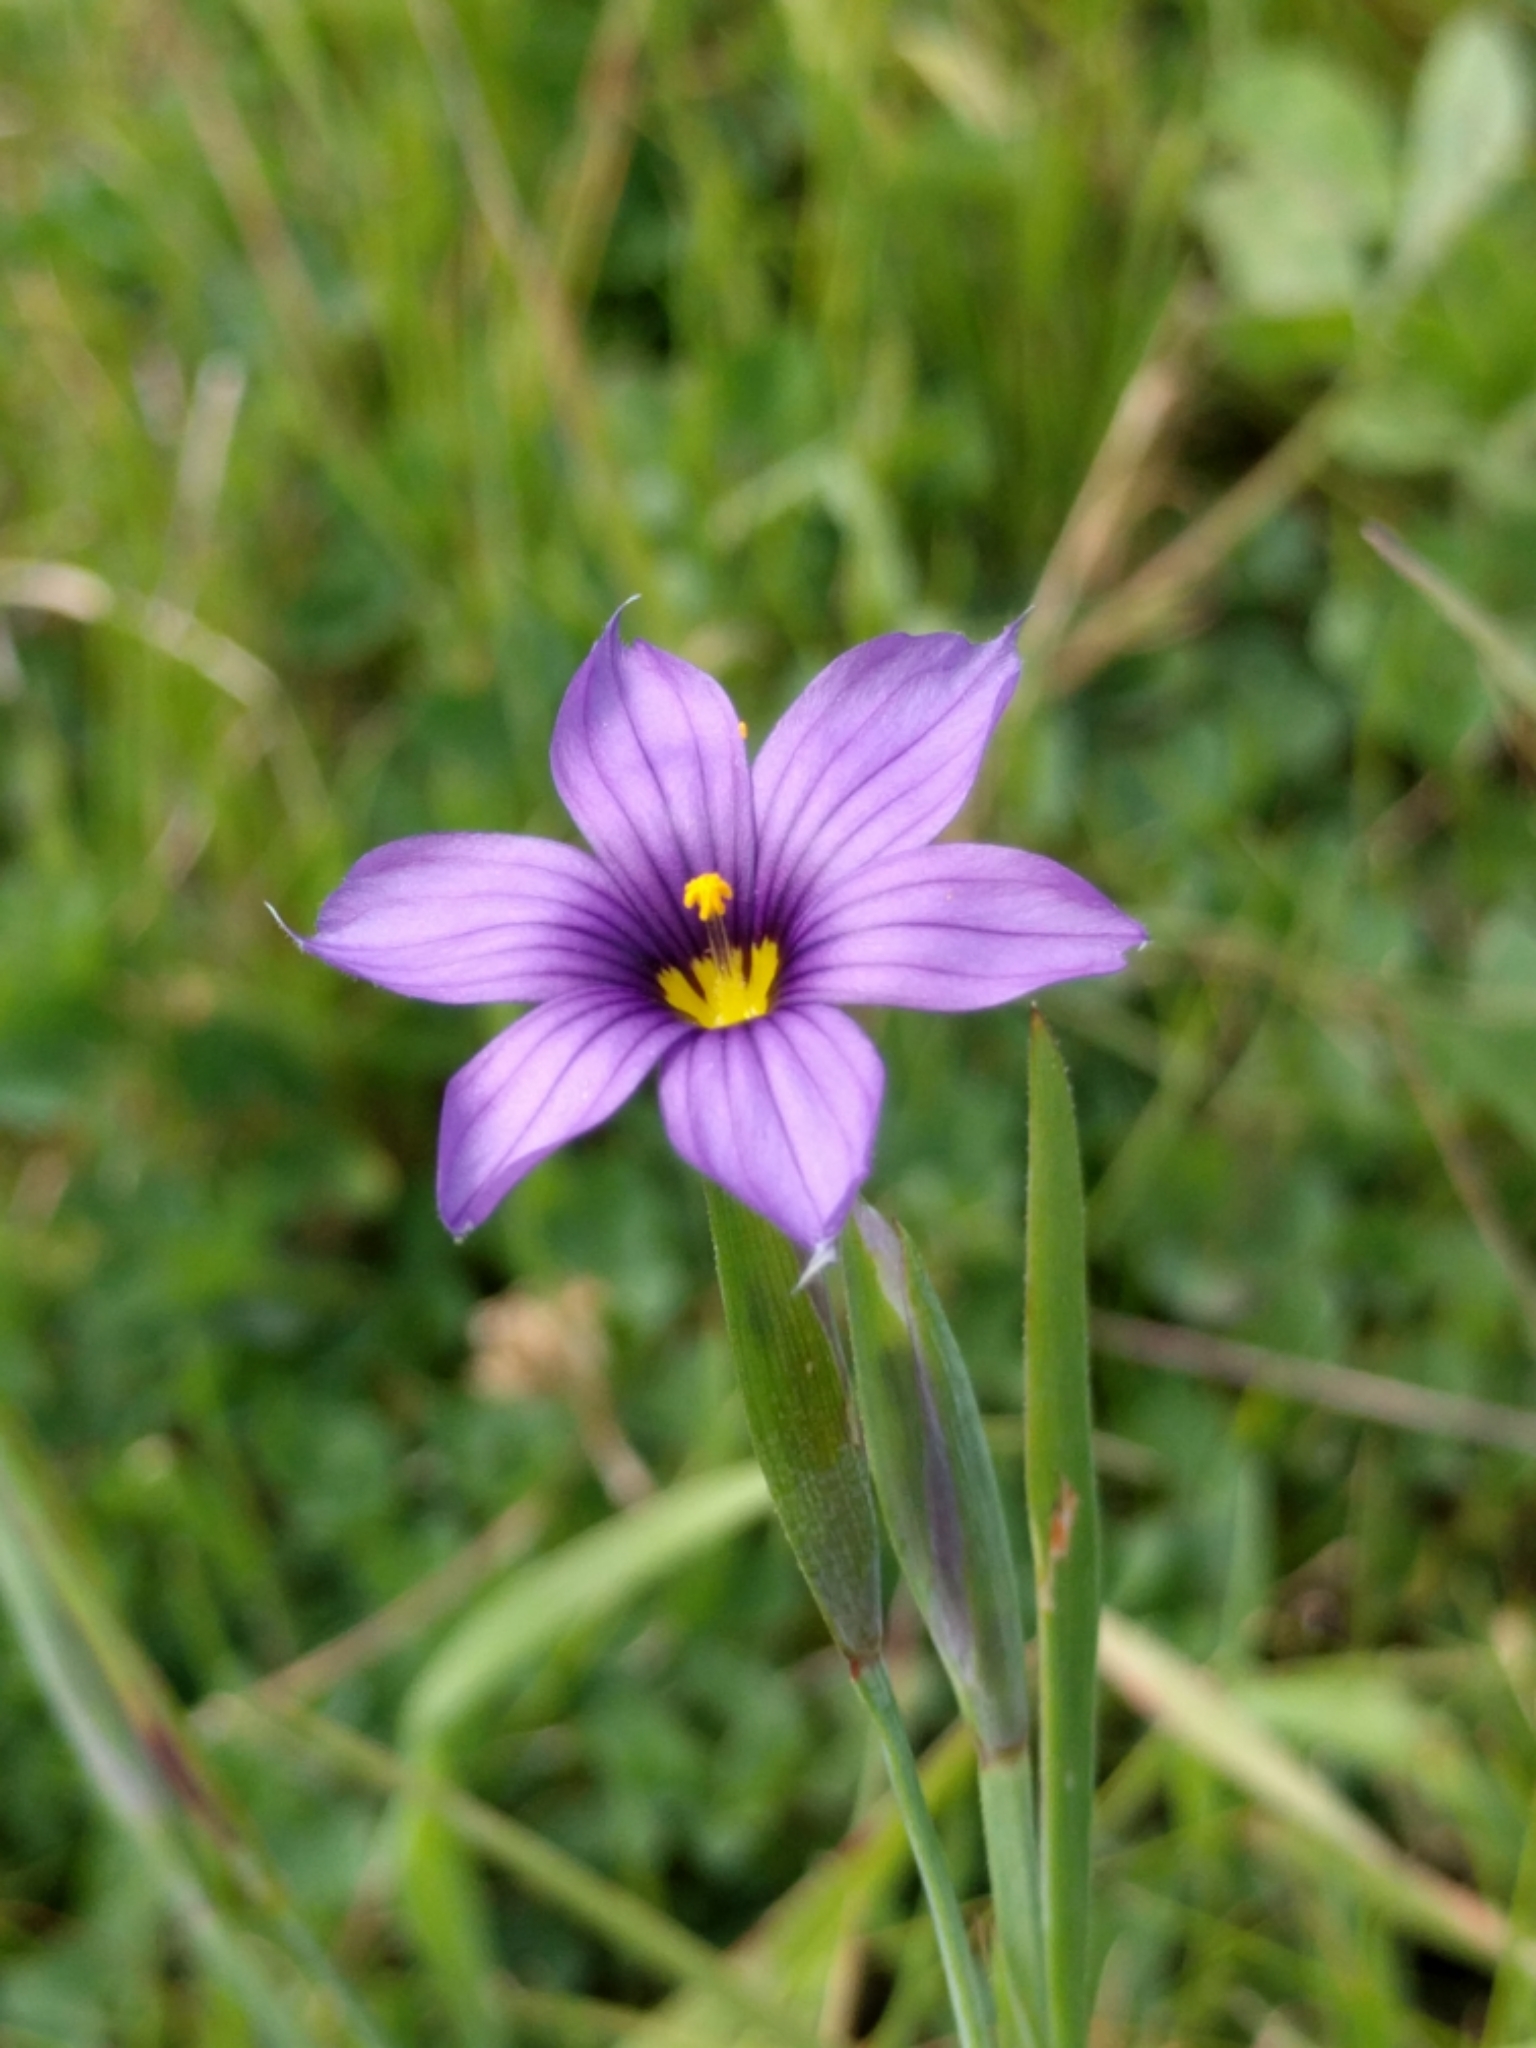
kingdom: Plantae
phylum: Tracheophyta
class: Liliopsida
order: Asparagales
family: Iridaceae
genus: Sisyrinchium
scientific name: Sisyrinchium bellum
